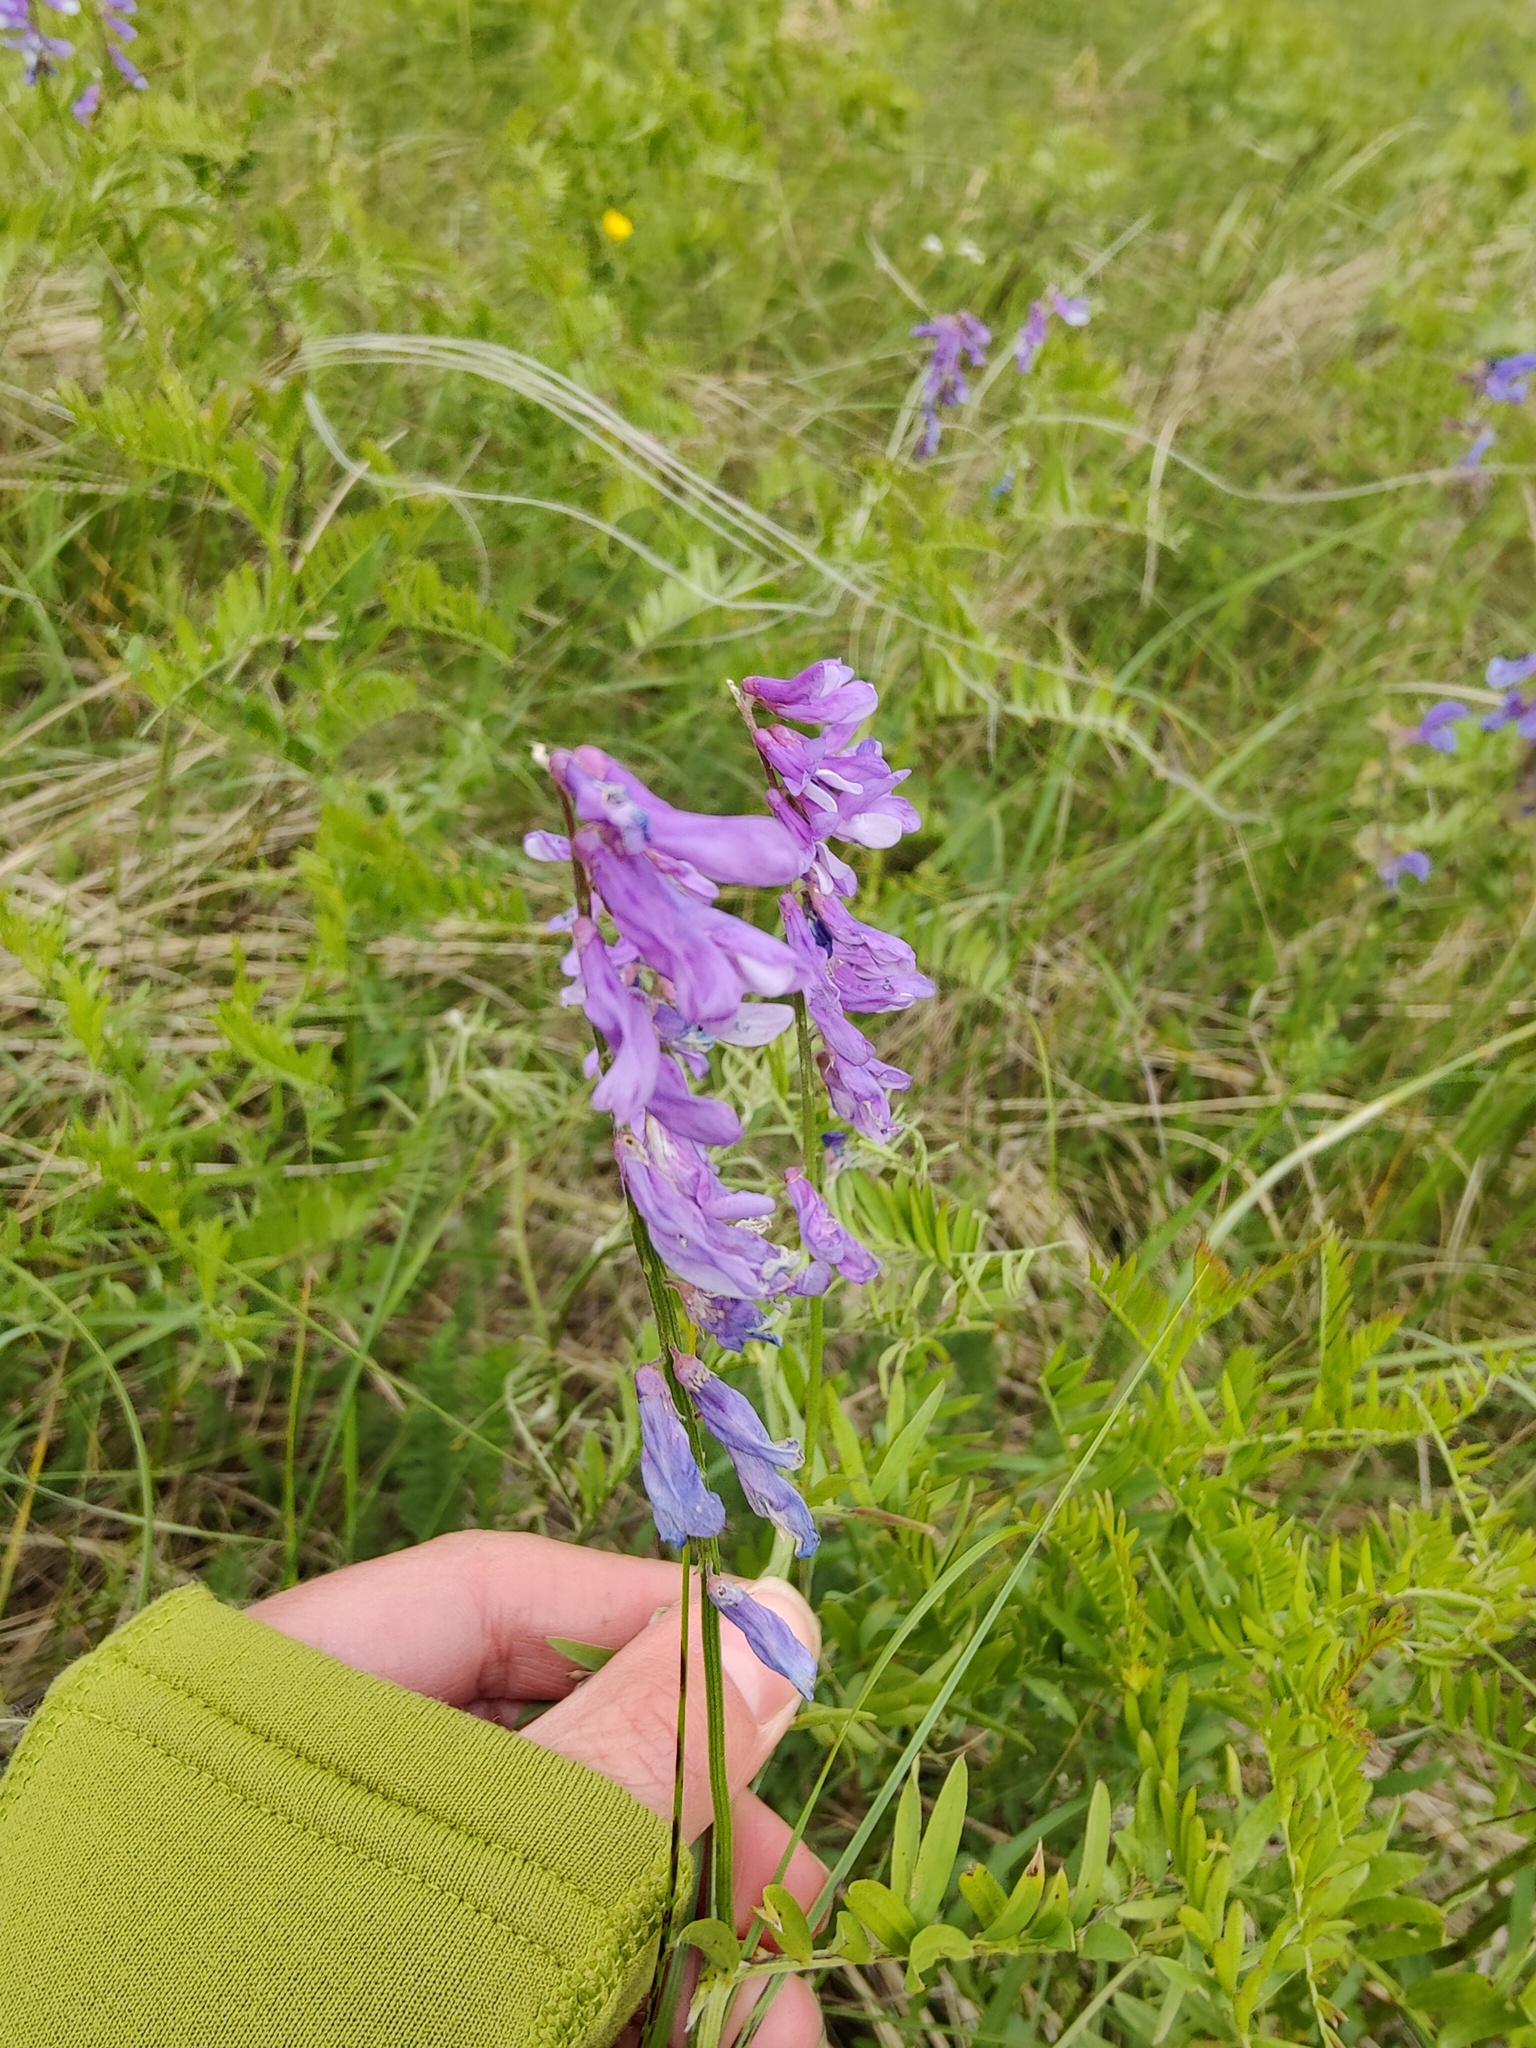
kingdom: Plantae
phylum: Tracheophyta
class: Magnoliopsida
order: Fabales
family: Fabaceae
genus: Vicia
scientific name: Vicia tenuifolia
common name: Fine-leaved vetch
